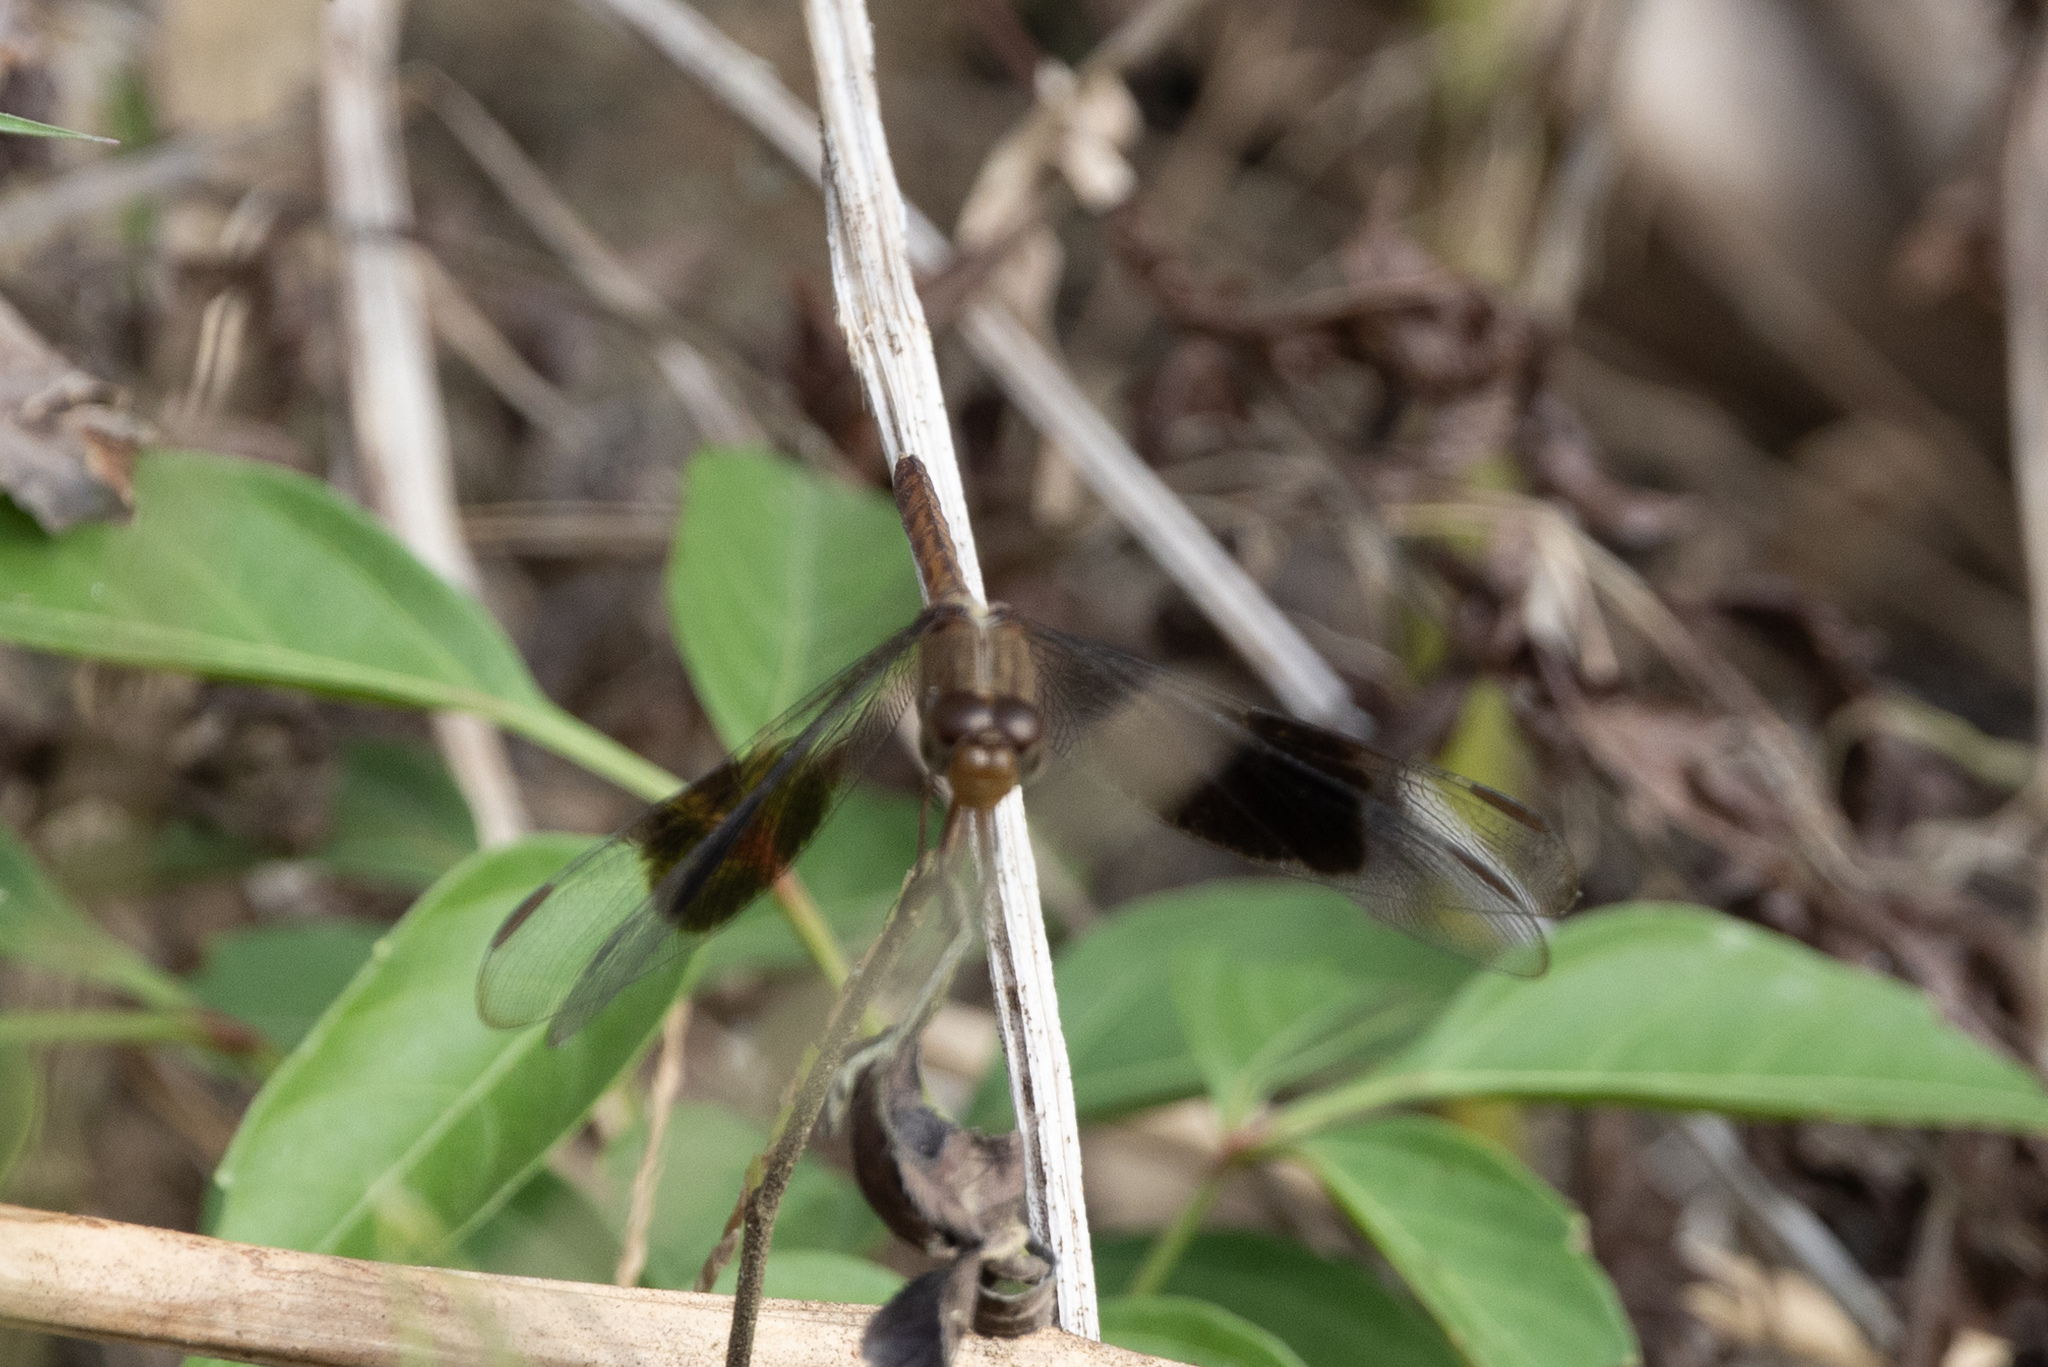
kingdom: Animalia
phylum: Arthropoda
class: Insecta
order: Odonata
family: Libellulidae
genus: Erythrodiplax
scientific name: Erythrodiplax funerea
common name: Black-winged dragonlet
